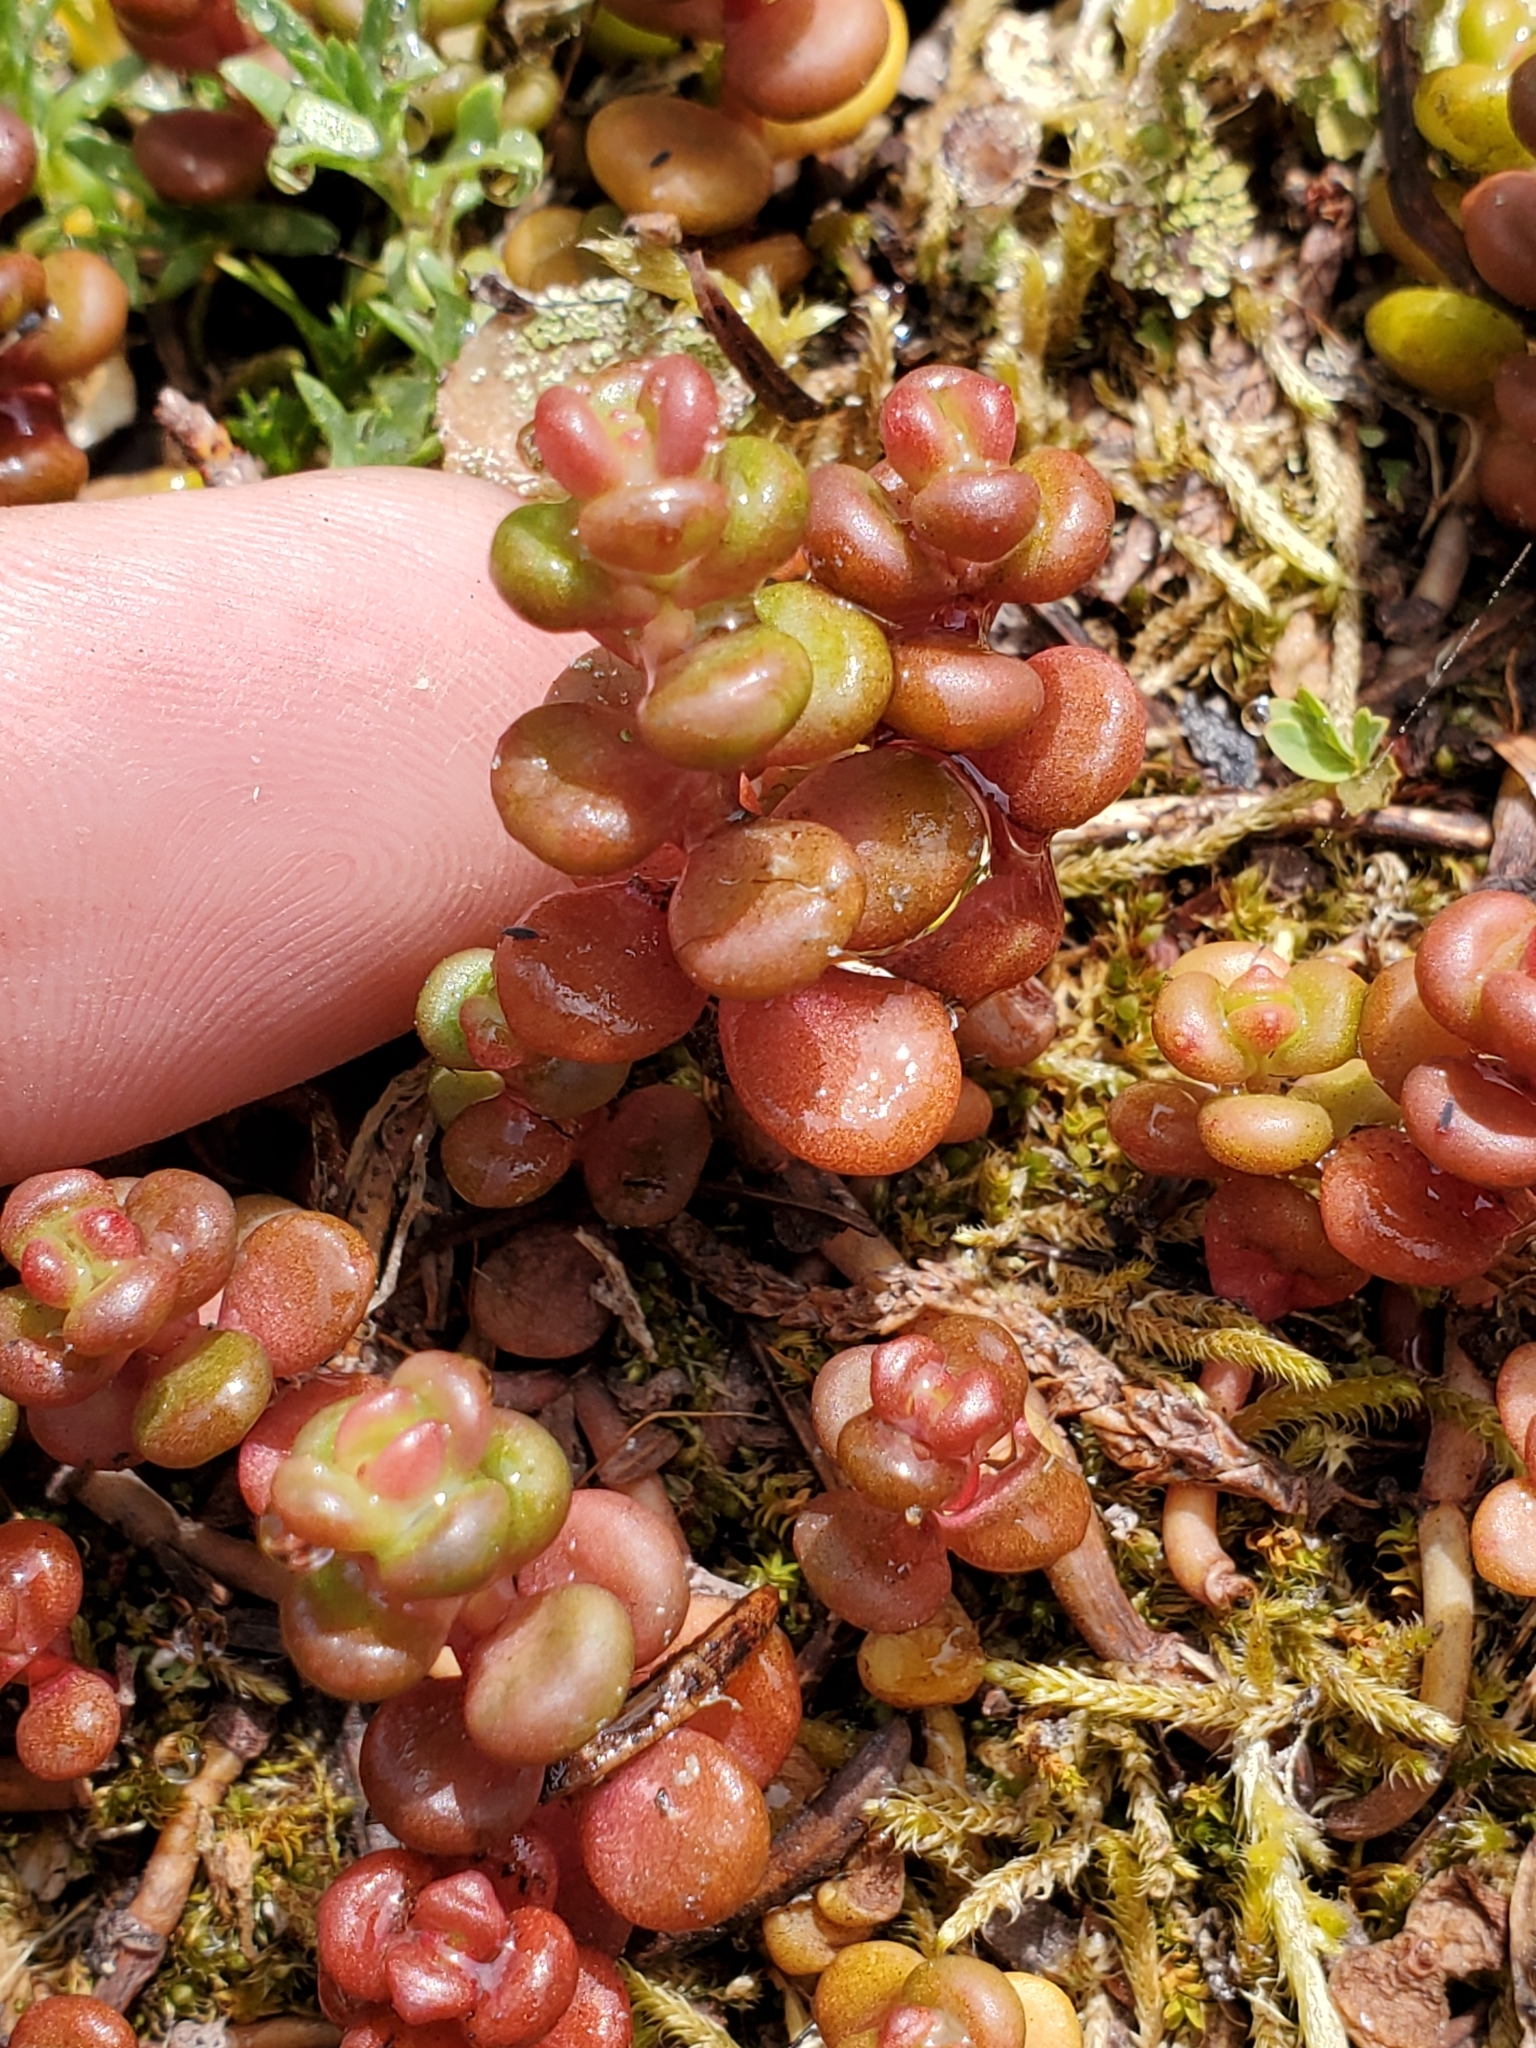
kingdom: Plantae
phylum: Tracheophyta
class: Magnoliopsida
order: Saxifragales
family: Crassulaceae
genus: Sedum
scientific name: Sedum divergens
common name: Cascade stonecrop
